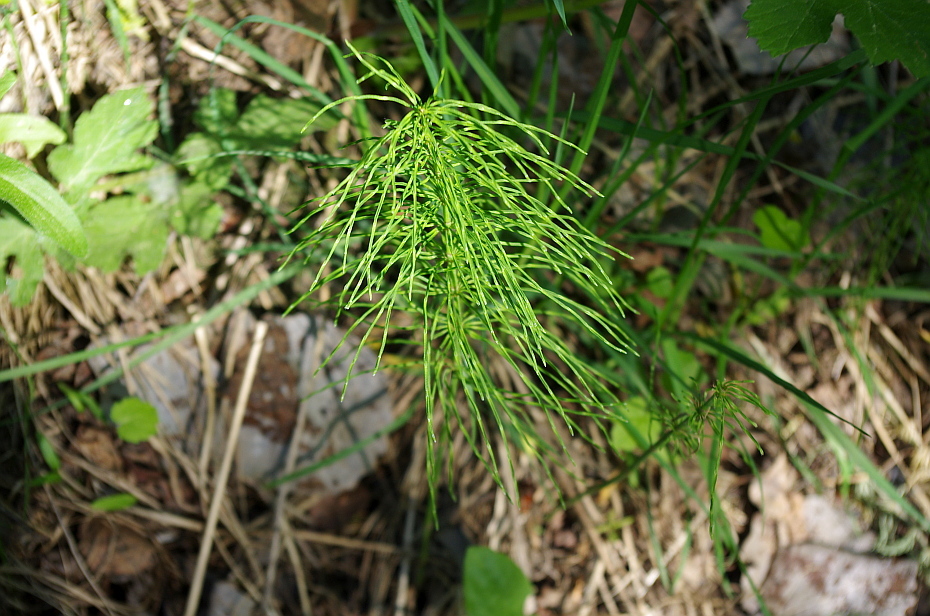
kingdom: Plantae
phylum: Tracheophyta
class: Polypodiopsida
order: Equisetales
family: Equisetaceae
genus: Equisetum
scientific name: Equisetum pratense
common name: Meadow horsetail
